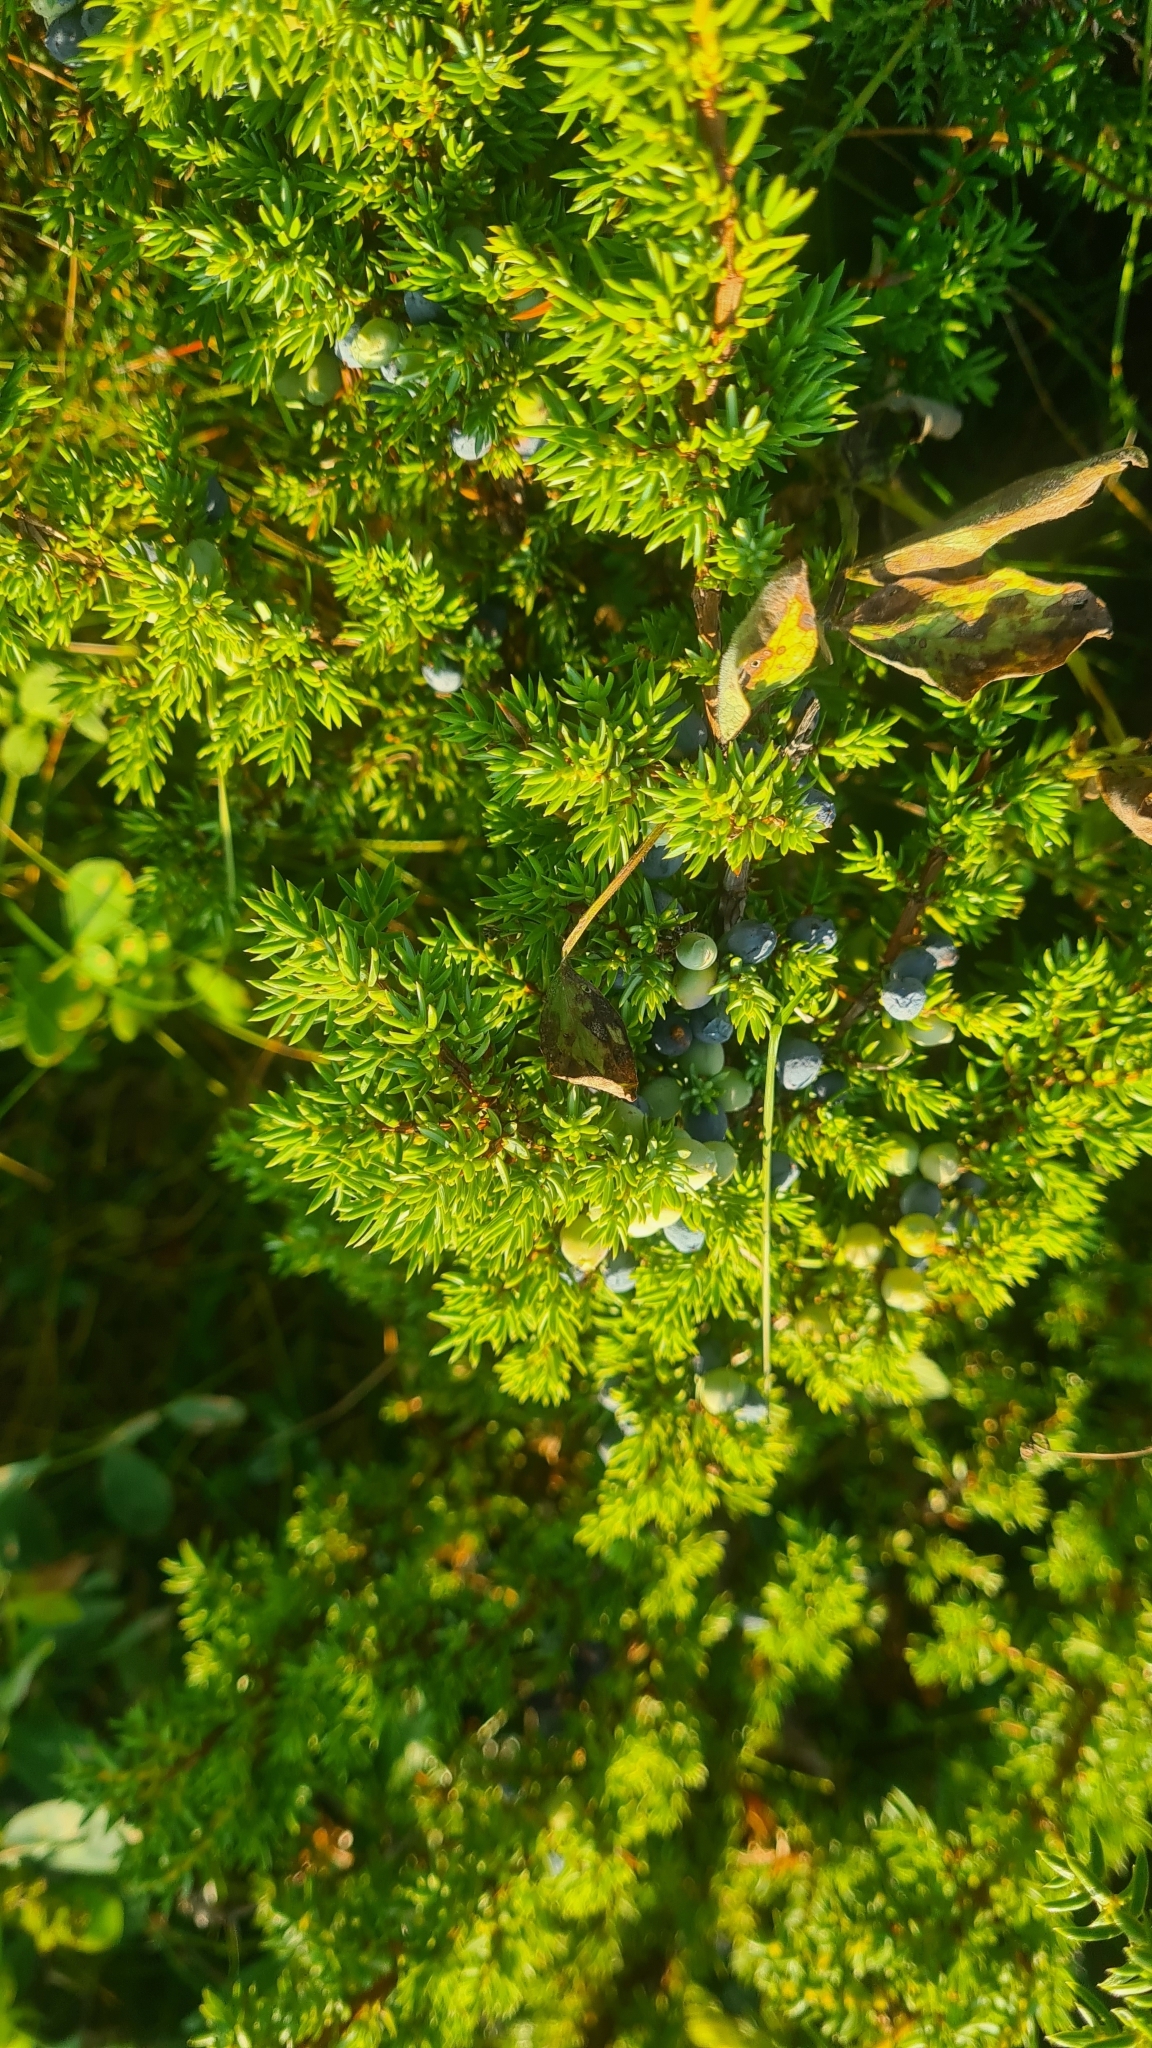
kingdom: Plantae
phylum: Tracheophyta
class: Pinopsida
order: Pinales
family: Cupressaceae
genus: Juniperus
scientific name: Juniperus communis
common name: Common juniper
